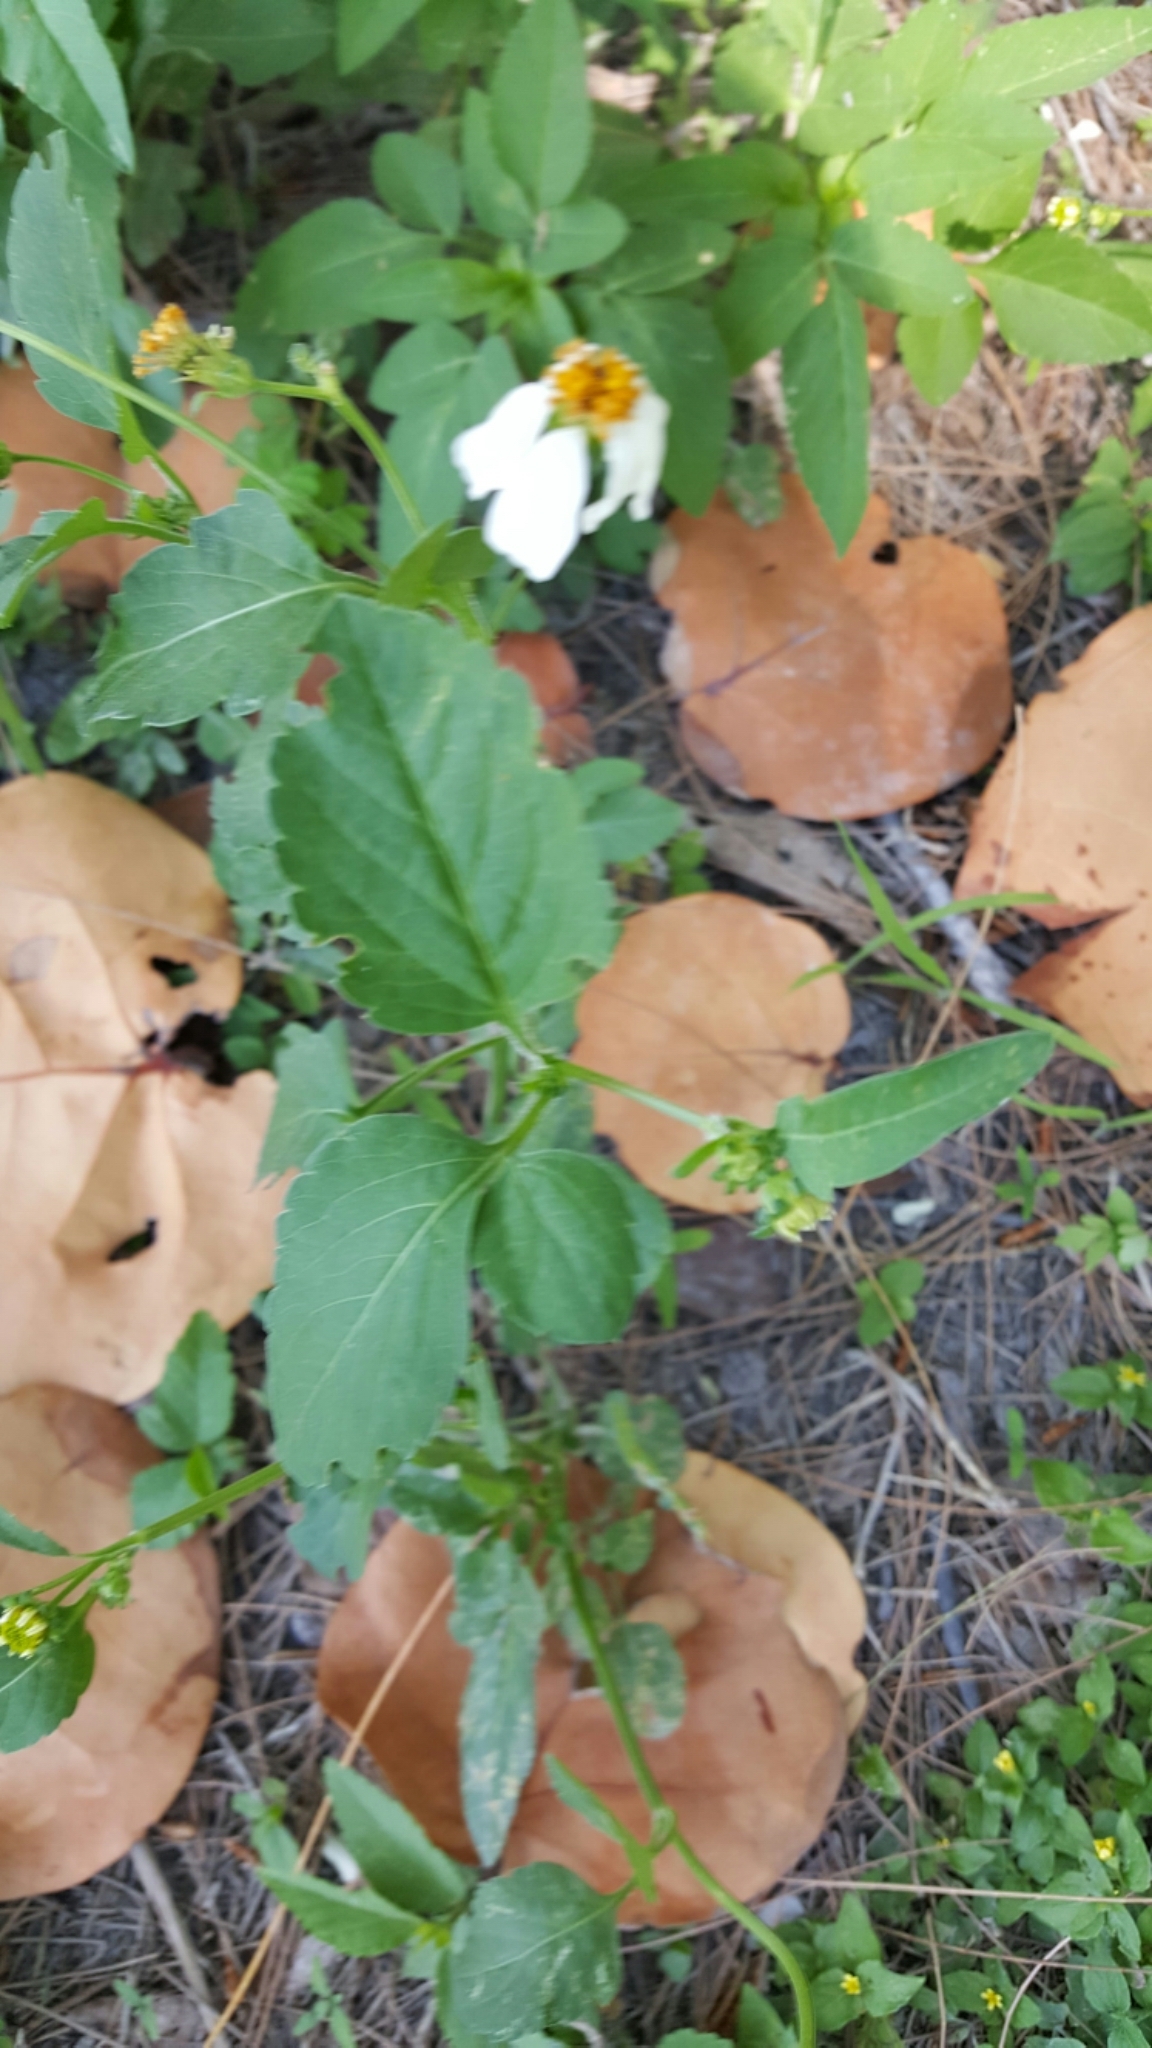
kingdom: Plantae
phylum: Tracheophyta
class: Magnoliopsida
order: Asterales
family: Asteraceae
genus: Bidens
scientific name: Bidens alba
